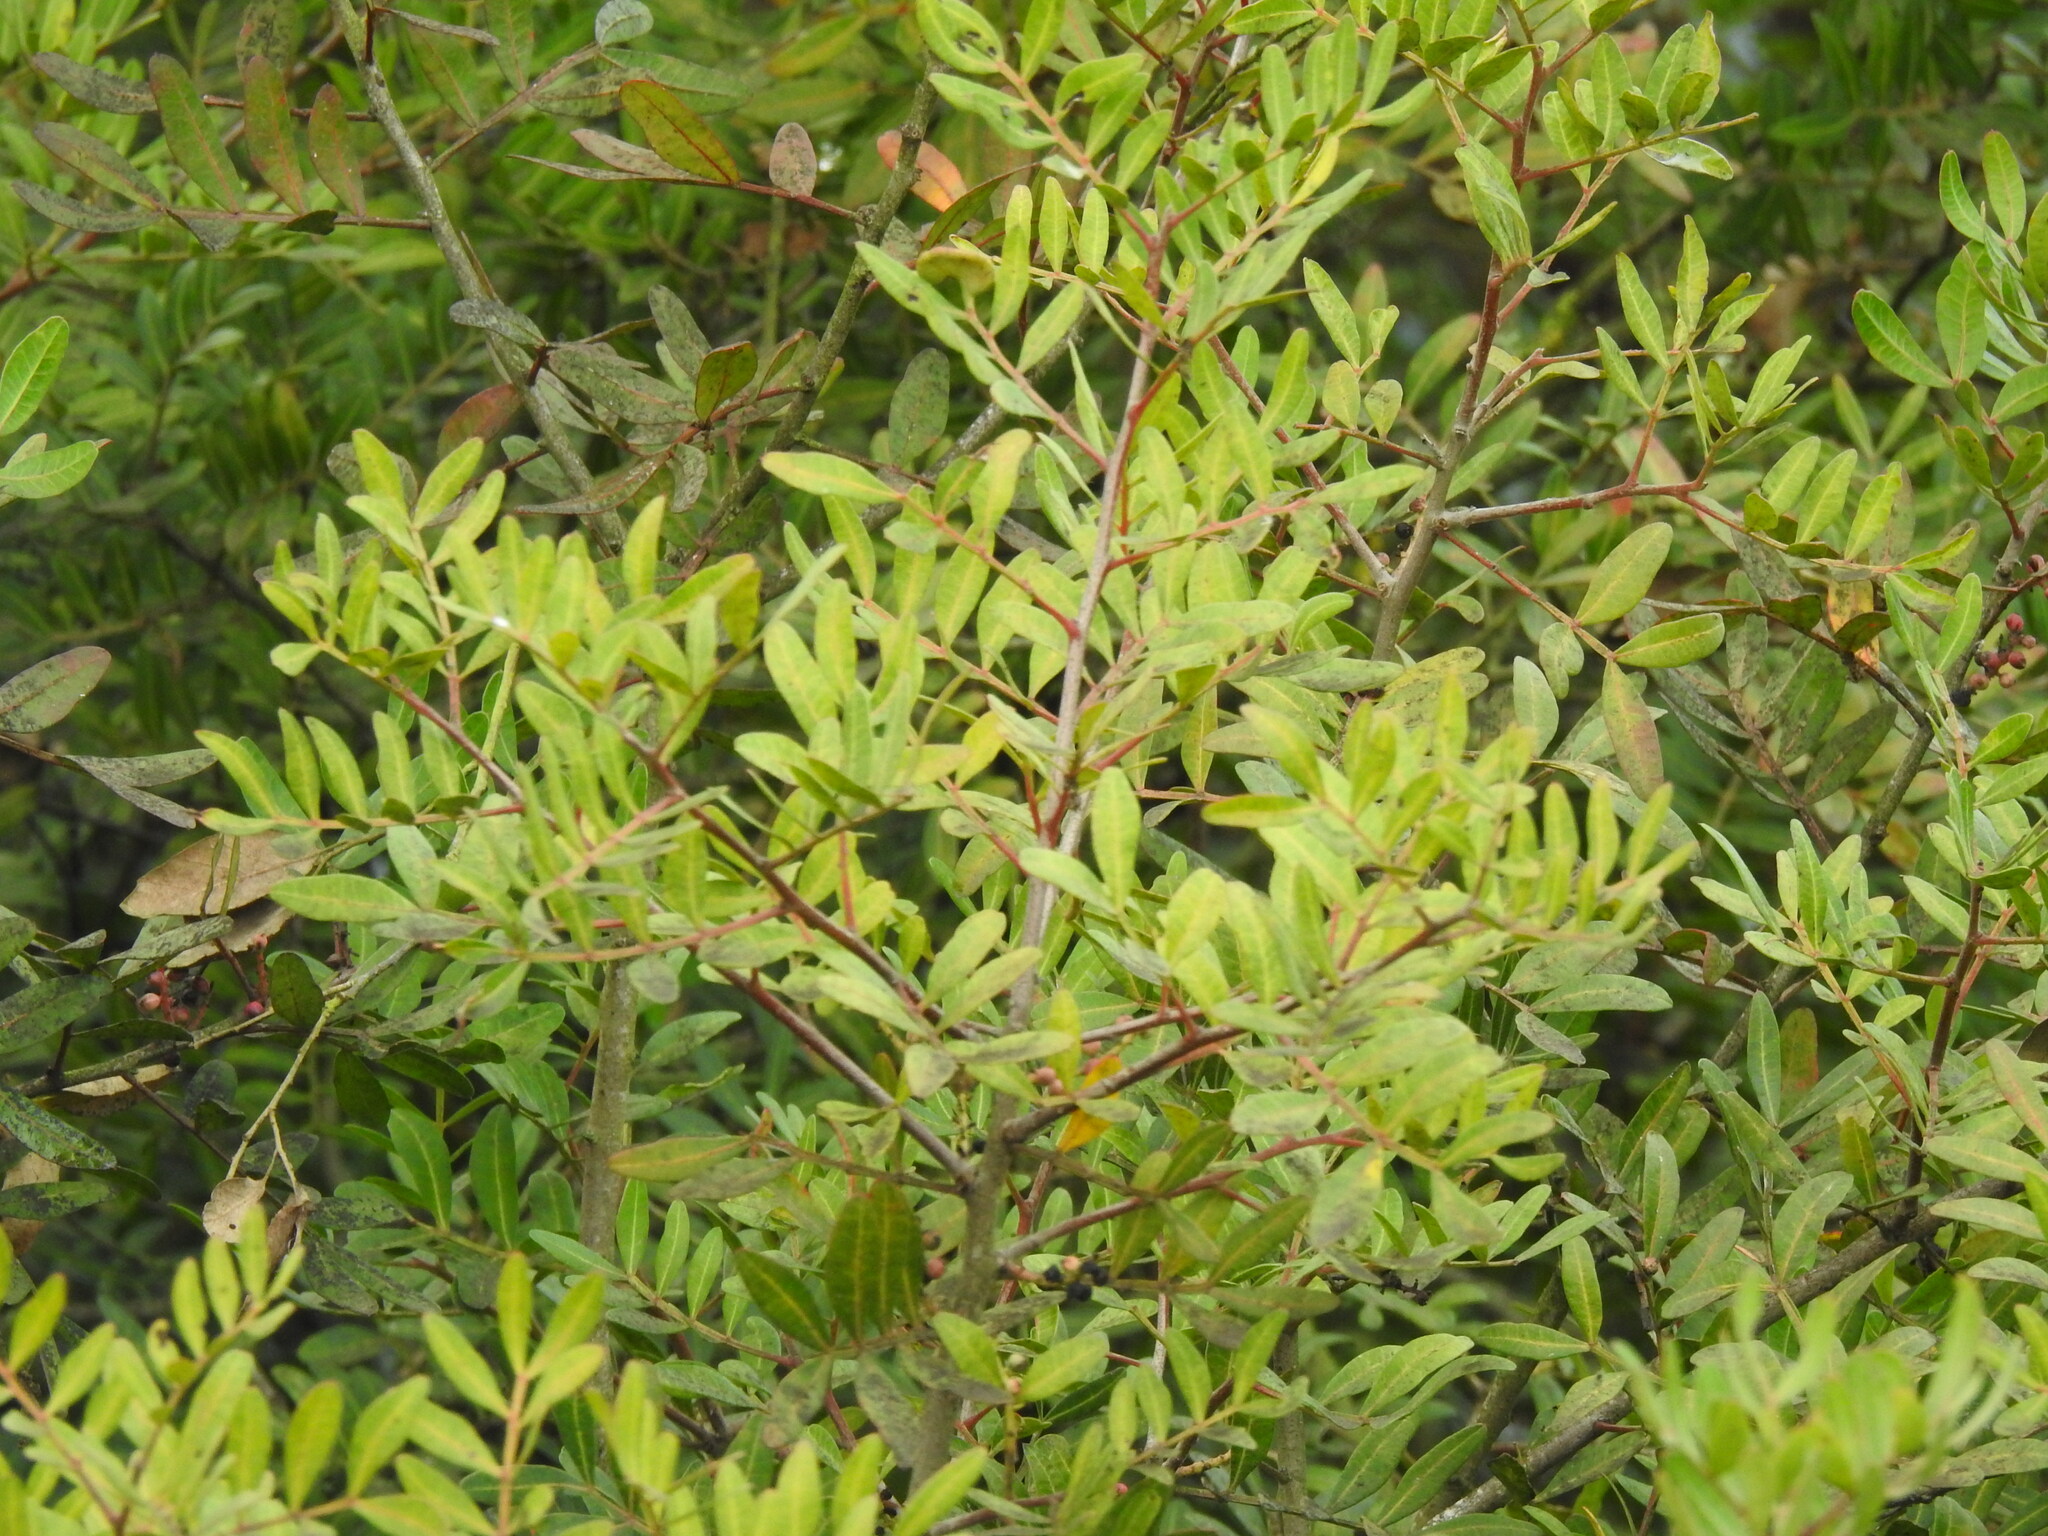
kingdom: Plantae
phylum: Tracheophyta
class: Magnoliopsida
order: Sapindales
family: Anacardiaceae
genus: Pistacia
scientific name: Pistacia lentiscus
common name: Lentisk
